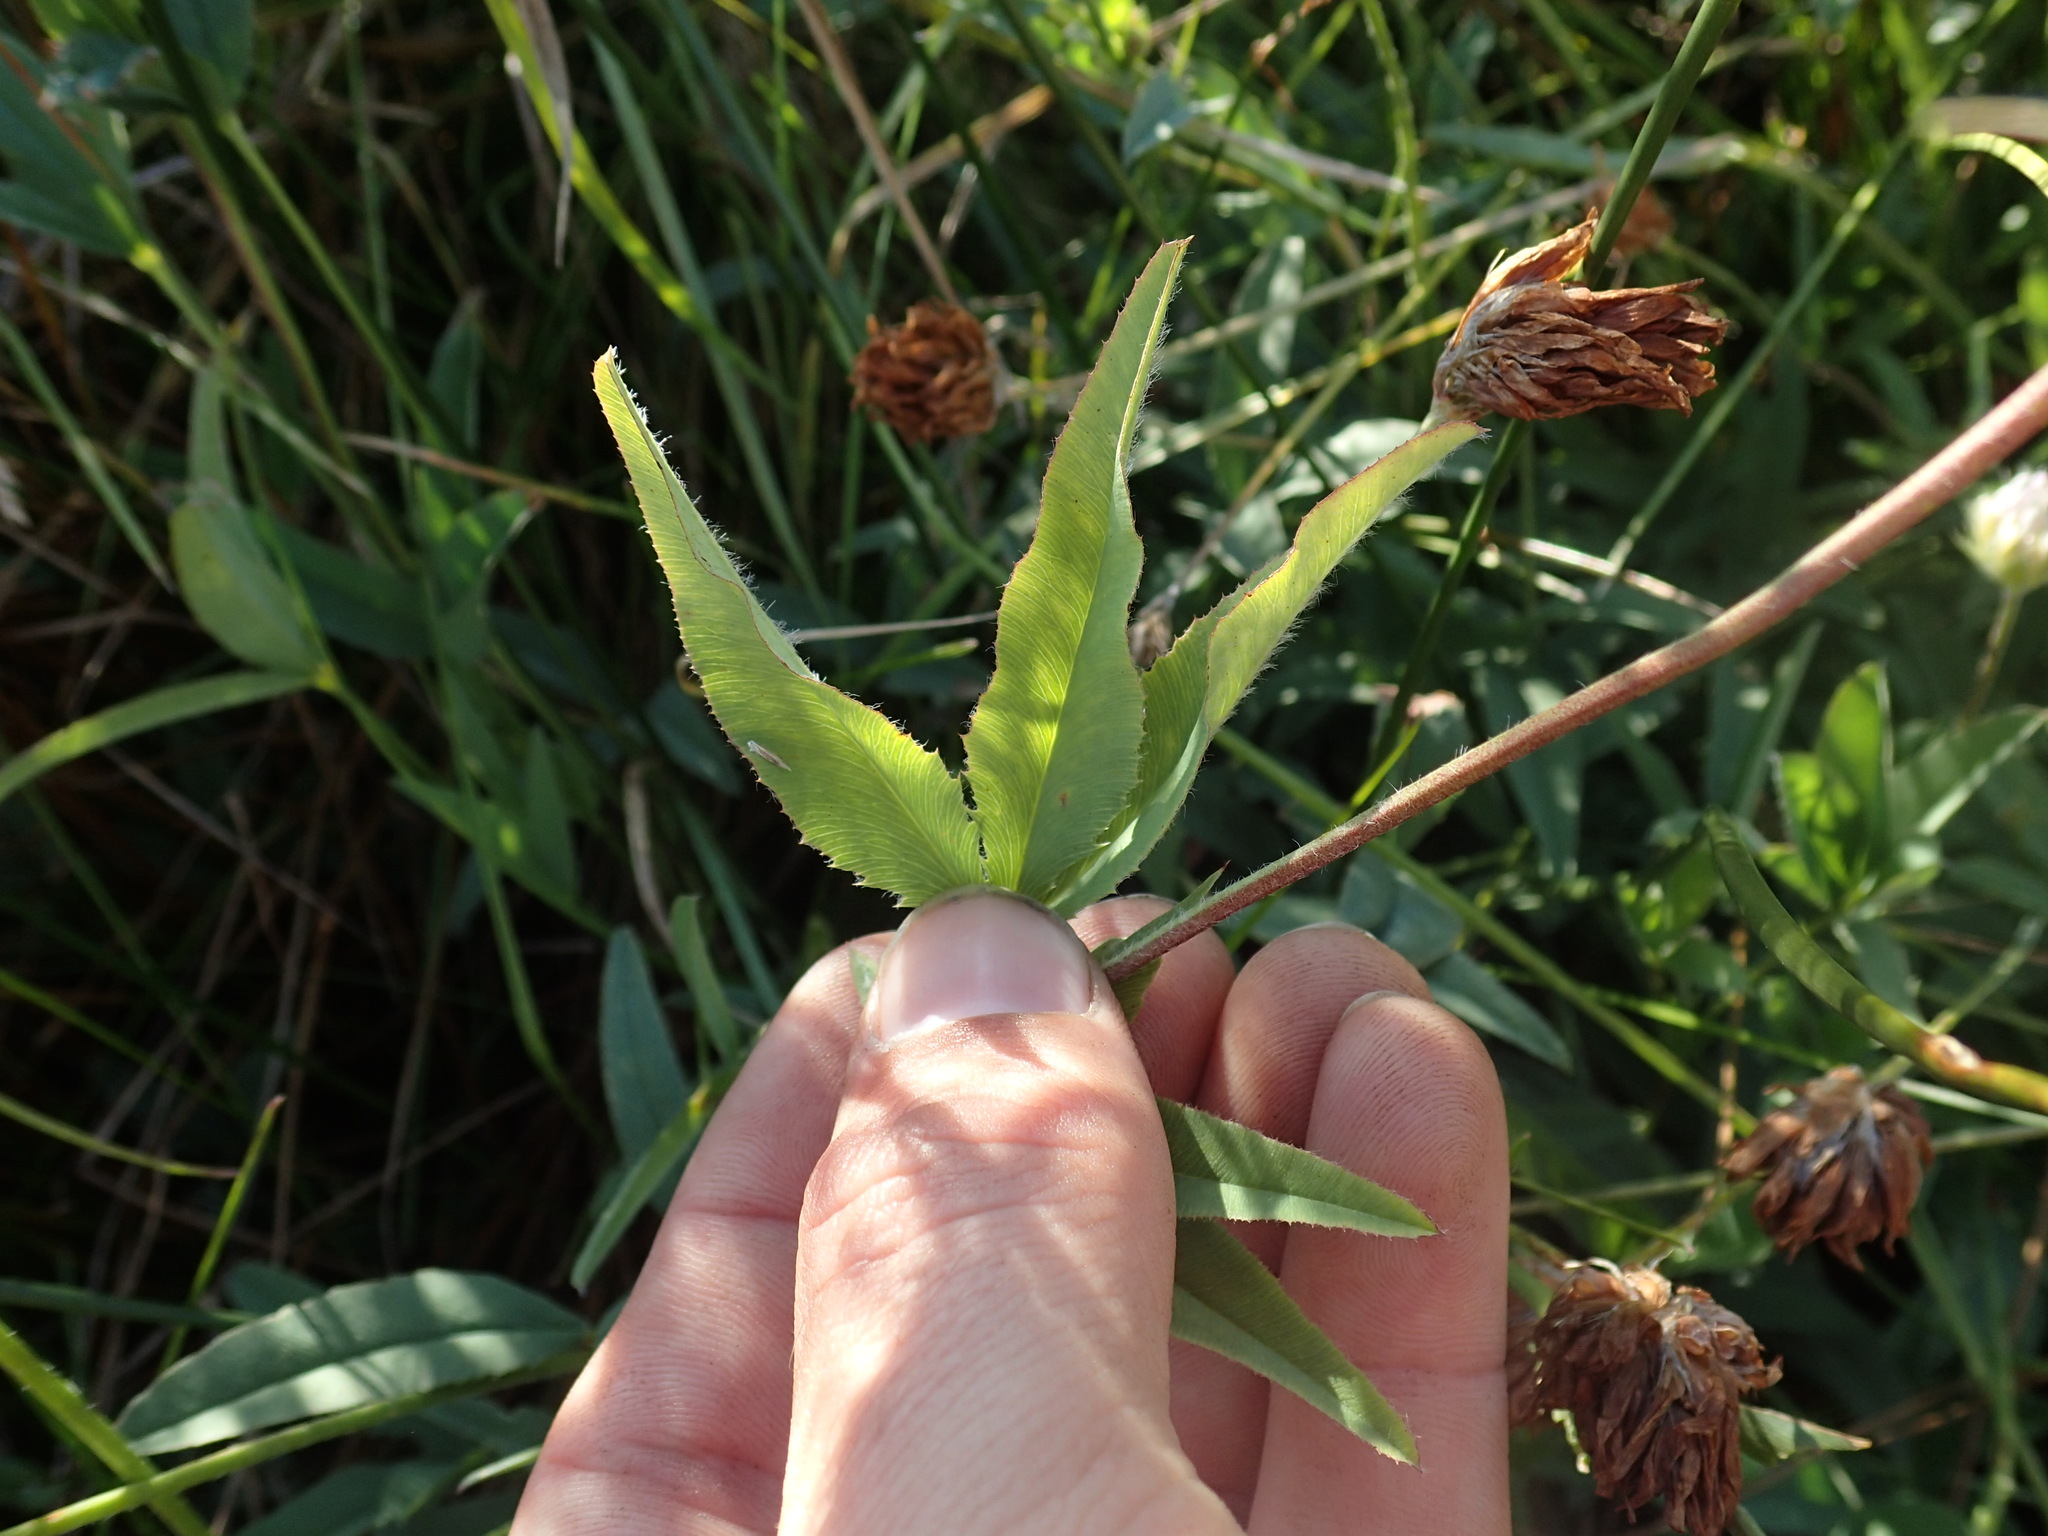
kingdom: Plantae
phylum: Tracheophyta
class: Magnoliopsida
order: Fabales
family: Fabaceae
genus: Trifolium
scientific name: Trifolium longipes
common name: Long-stalk clover
